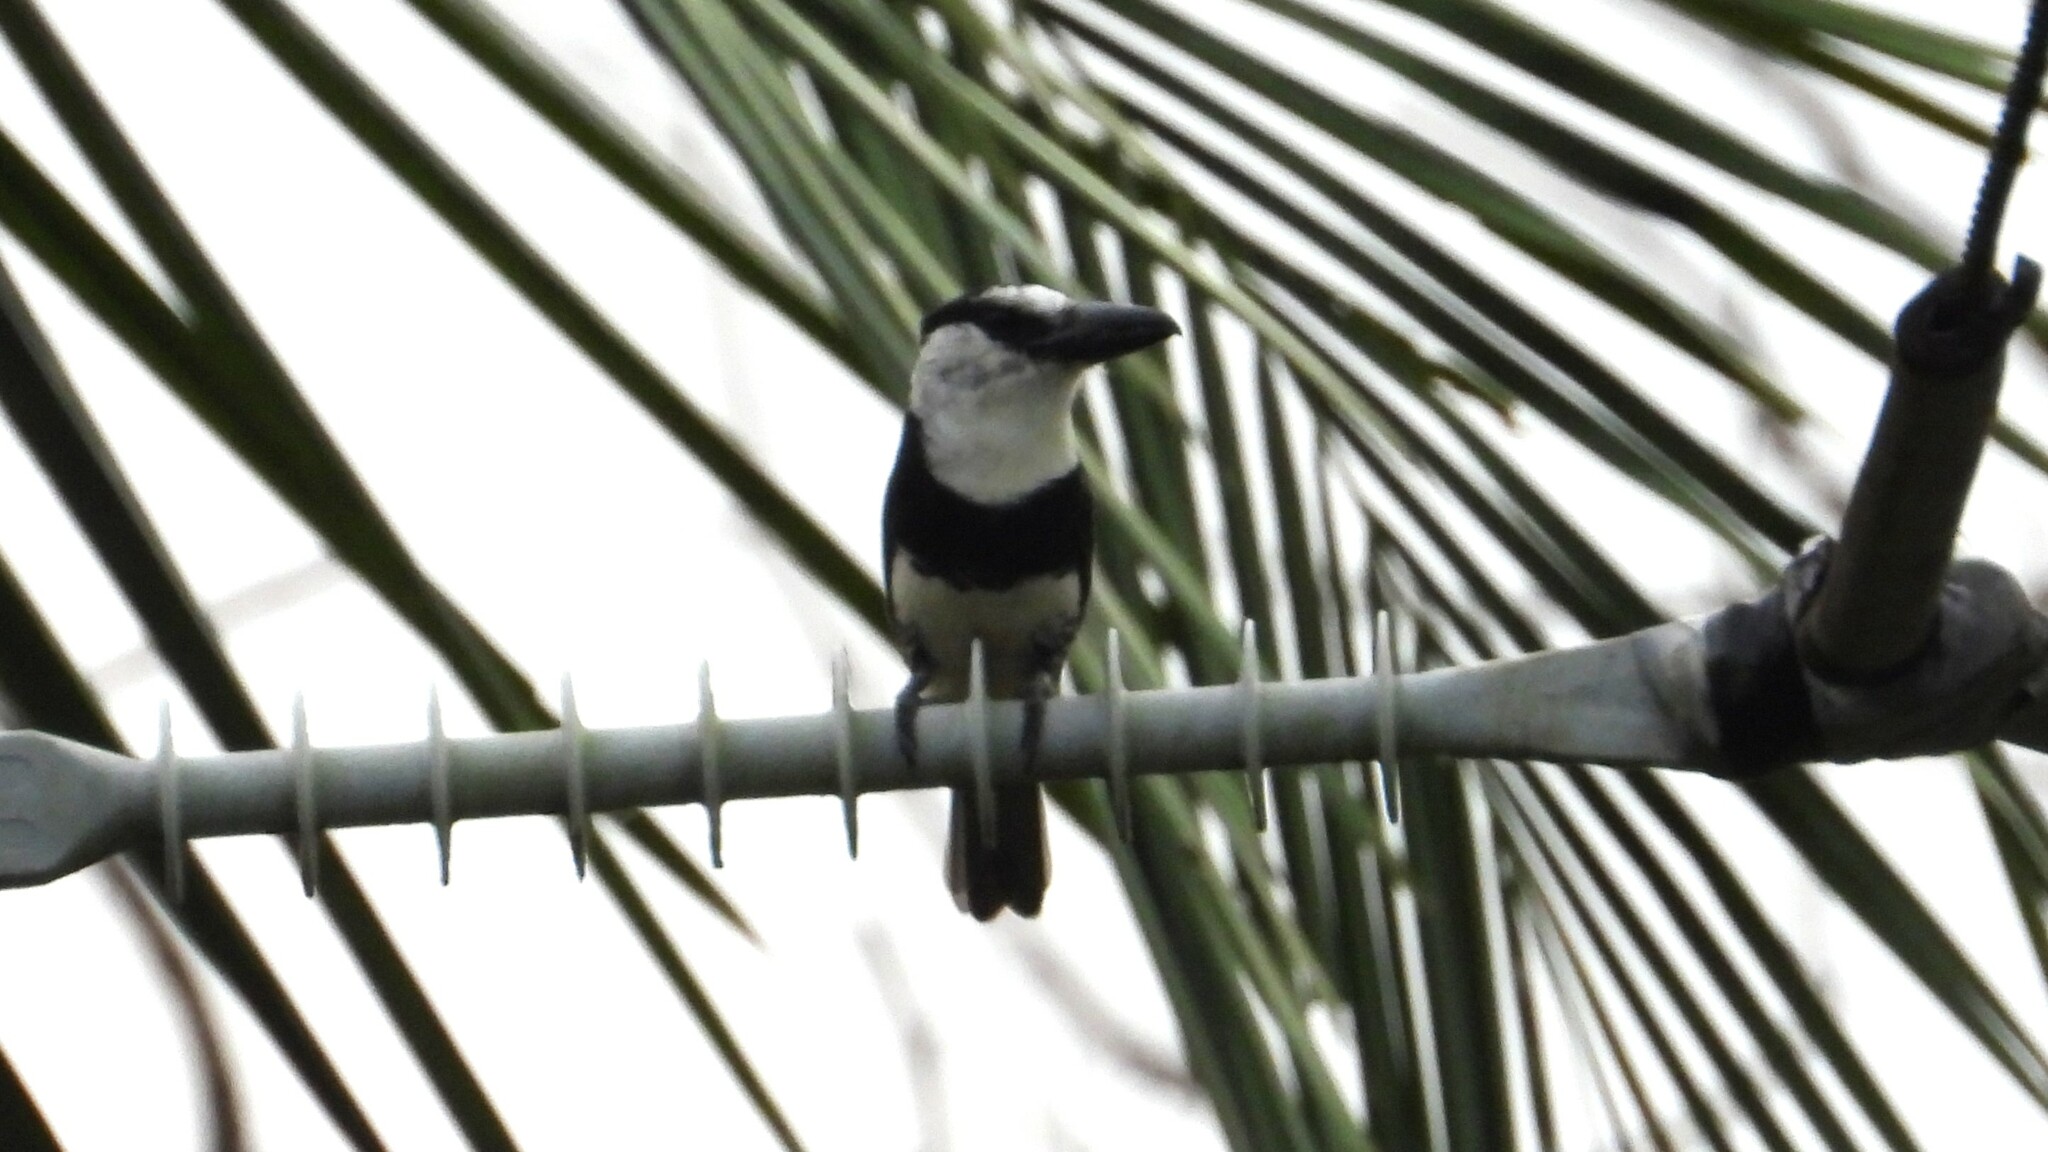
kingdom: Animalia
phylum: Chordata
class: Aves
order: Piciformes
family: Bucconidae
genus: Notharchus
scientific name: Notharchus hyperrhynchus
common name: White-necked puffbird
